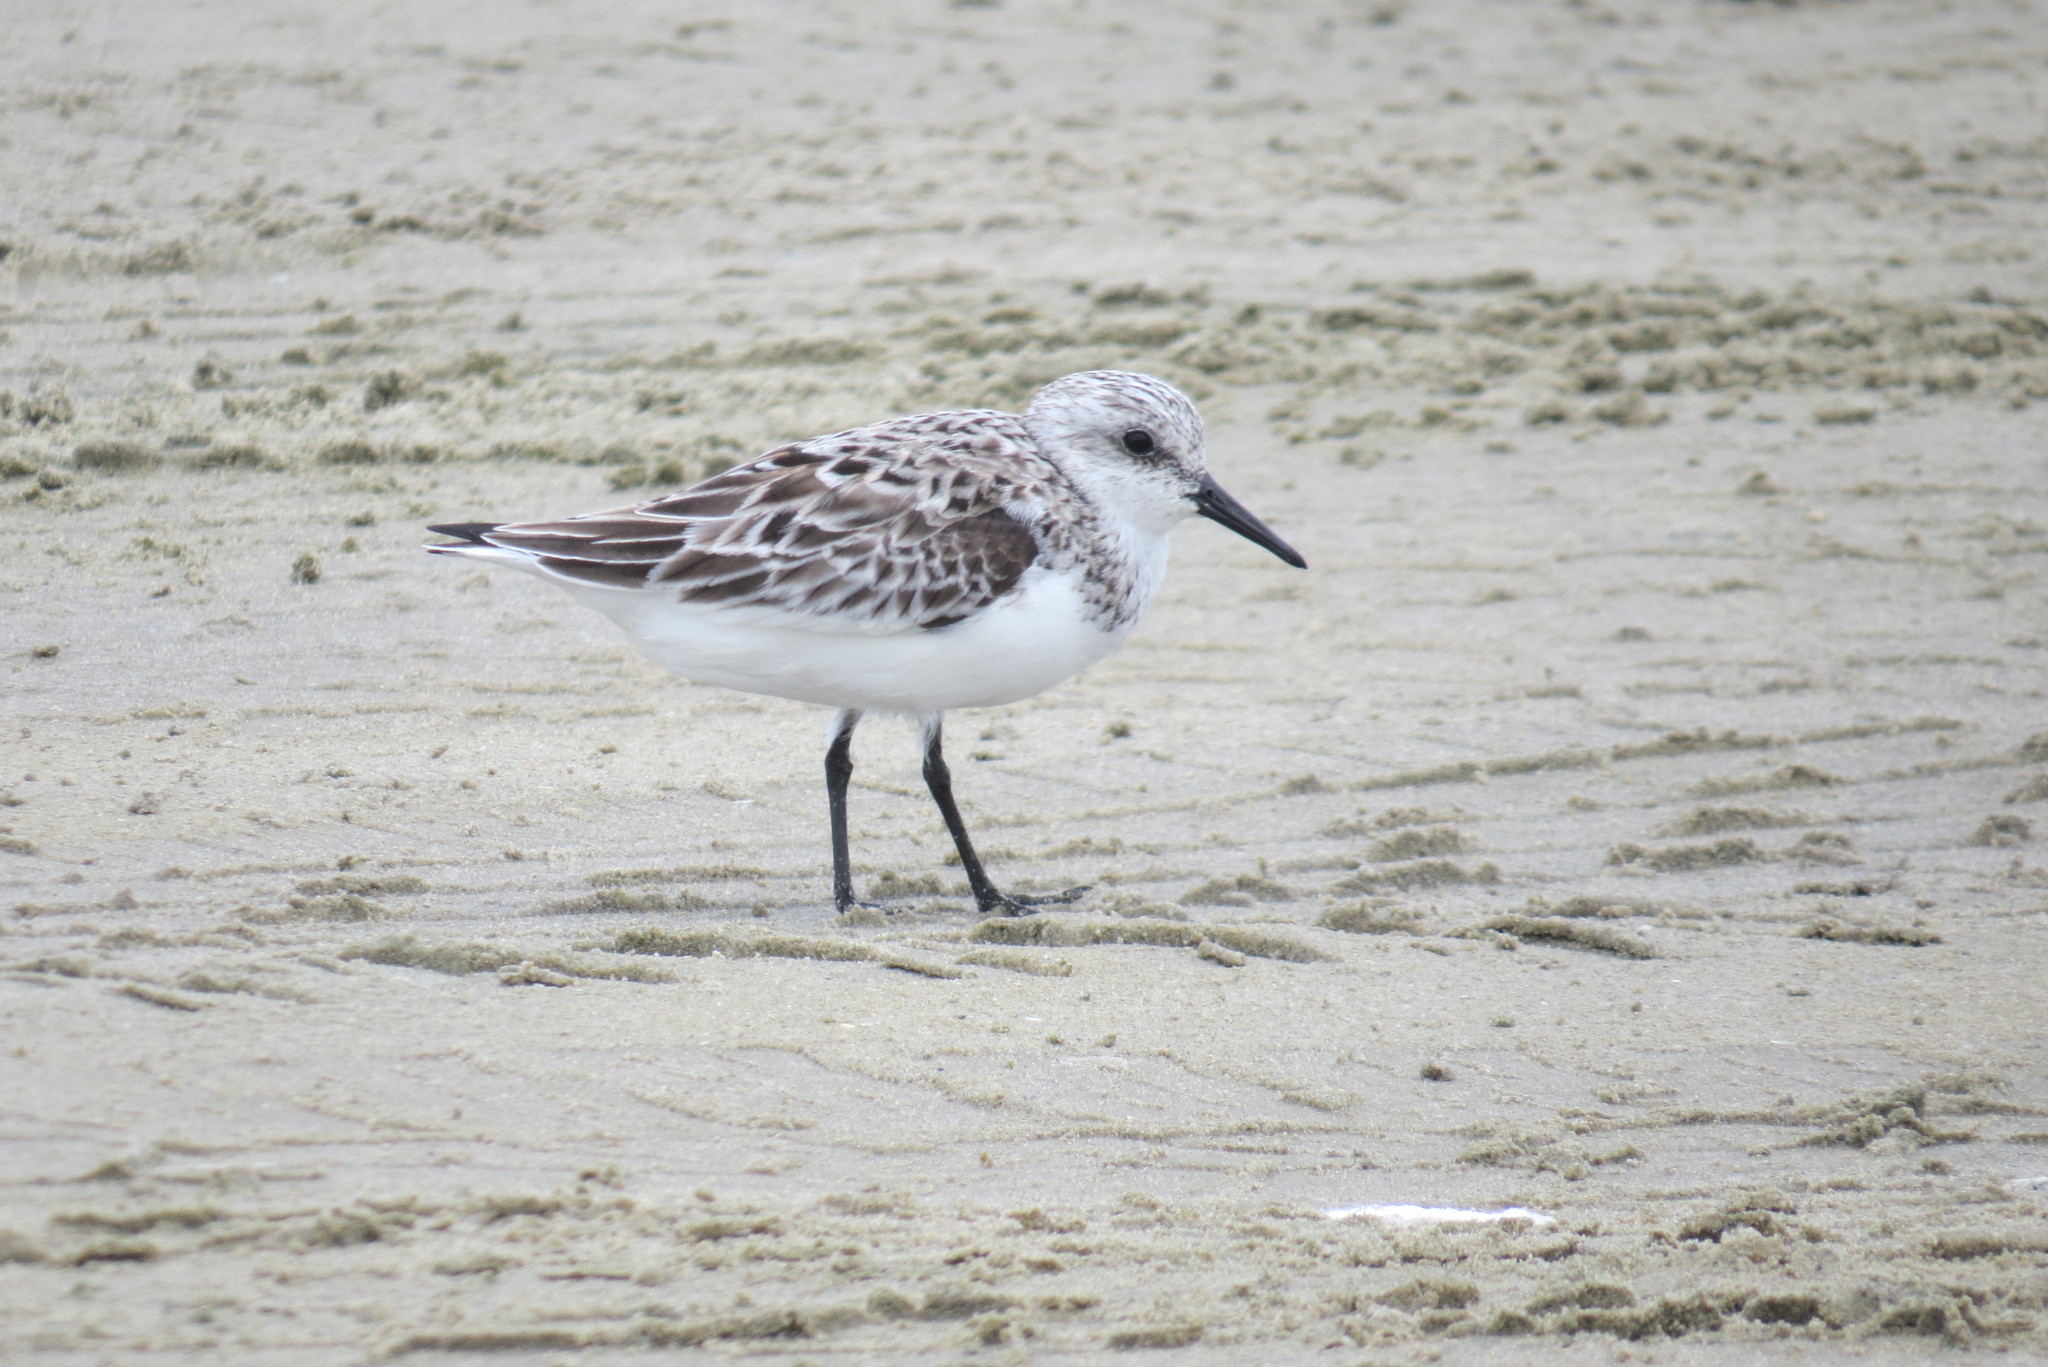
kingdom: Animalia
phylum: Chordata
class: Aves
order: Charadriiformes
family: Scolopacidae
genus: Calidris
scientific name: Calidris alba
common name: Sanderling
